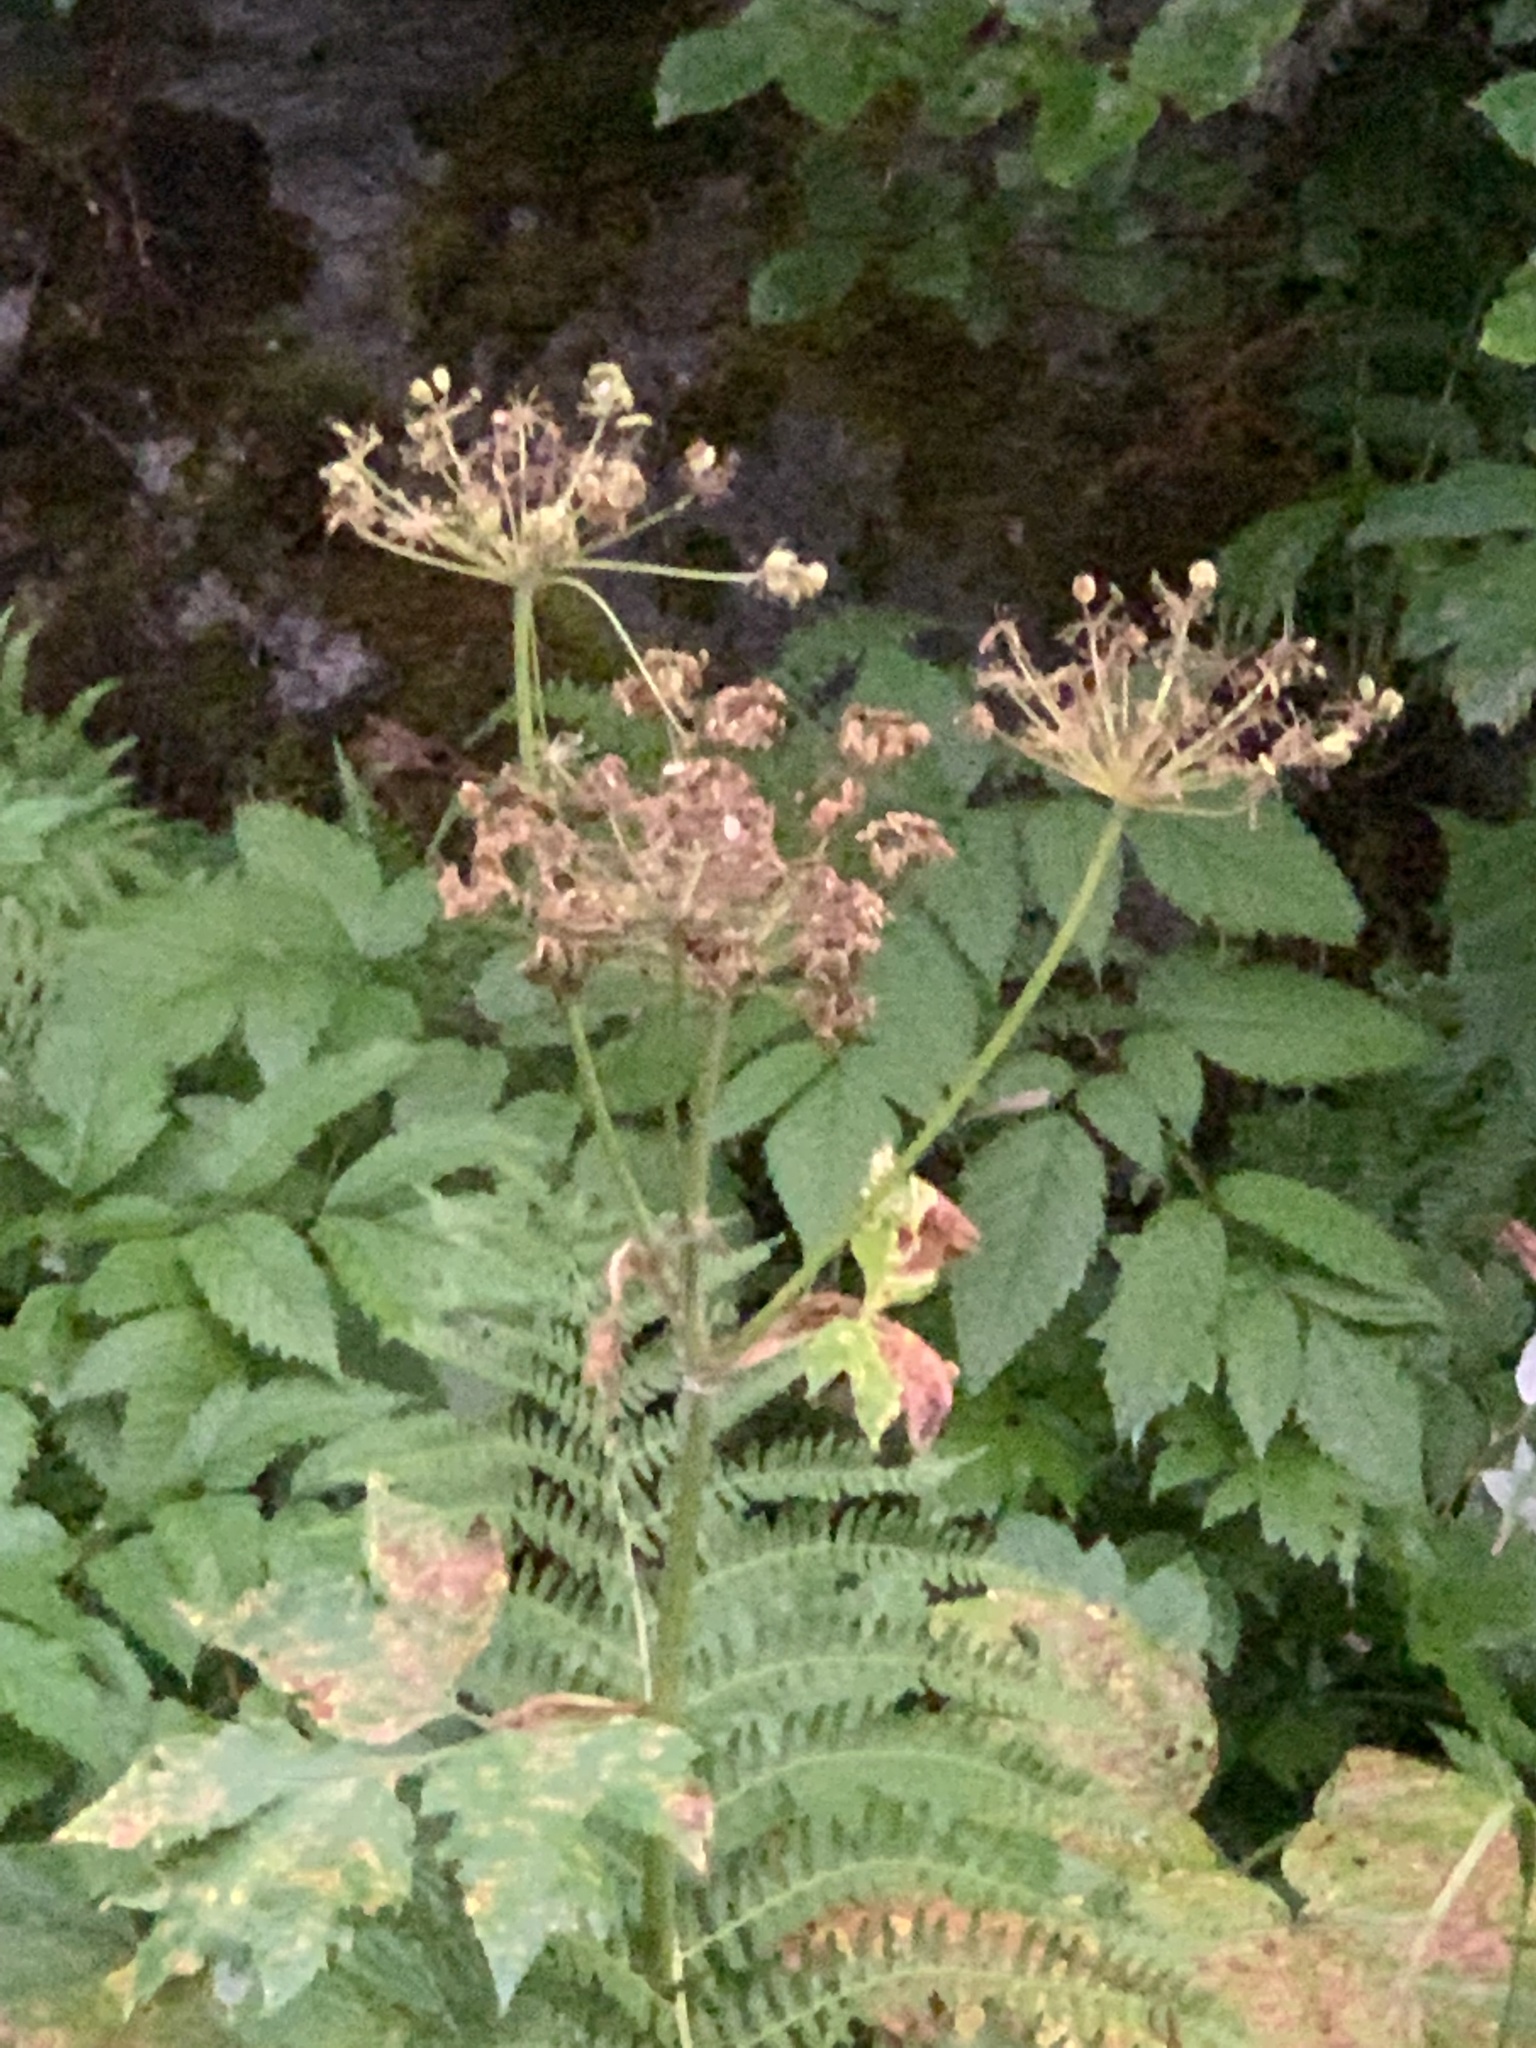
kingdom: Plantae
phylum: Tracheophyta
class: Magnoliopsida
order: Apiales
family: Apiaceae
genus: Heracleum
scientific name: Heracleum maximum
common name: American cow parsnip
